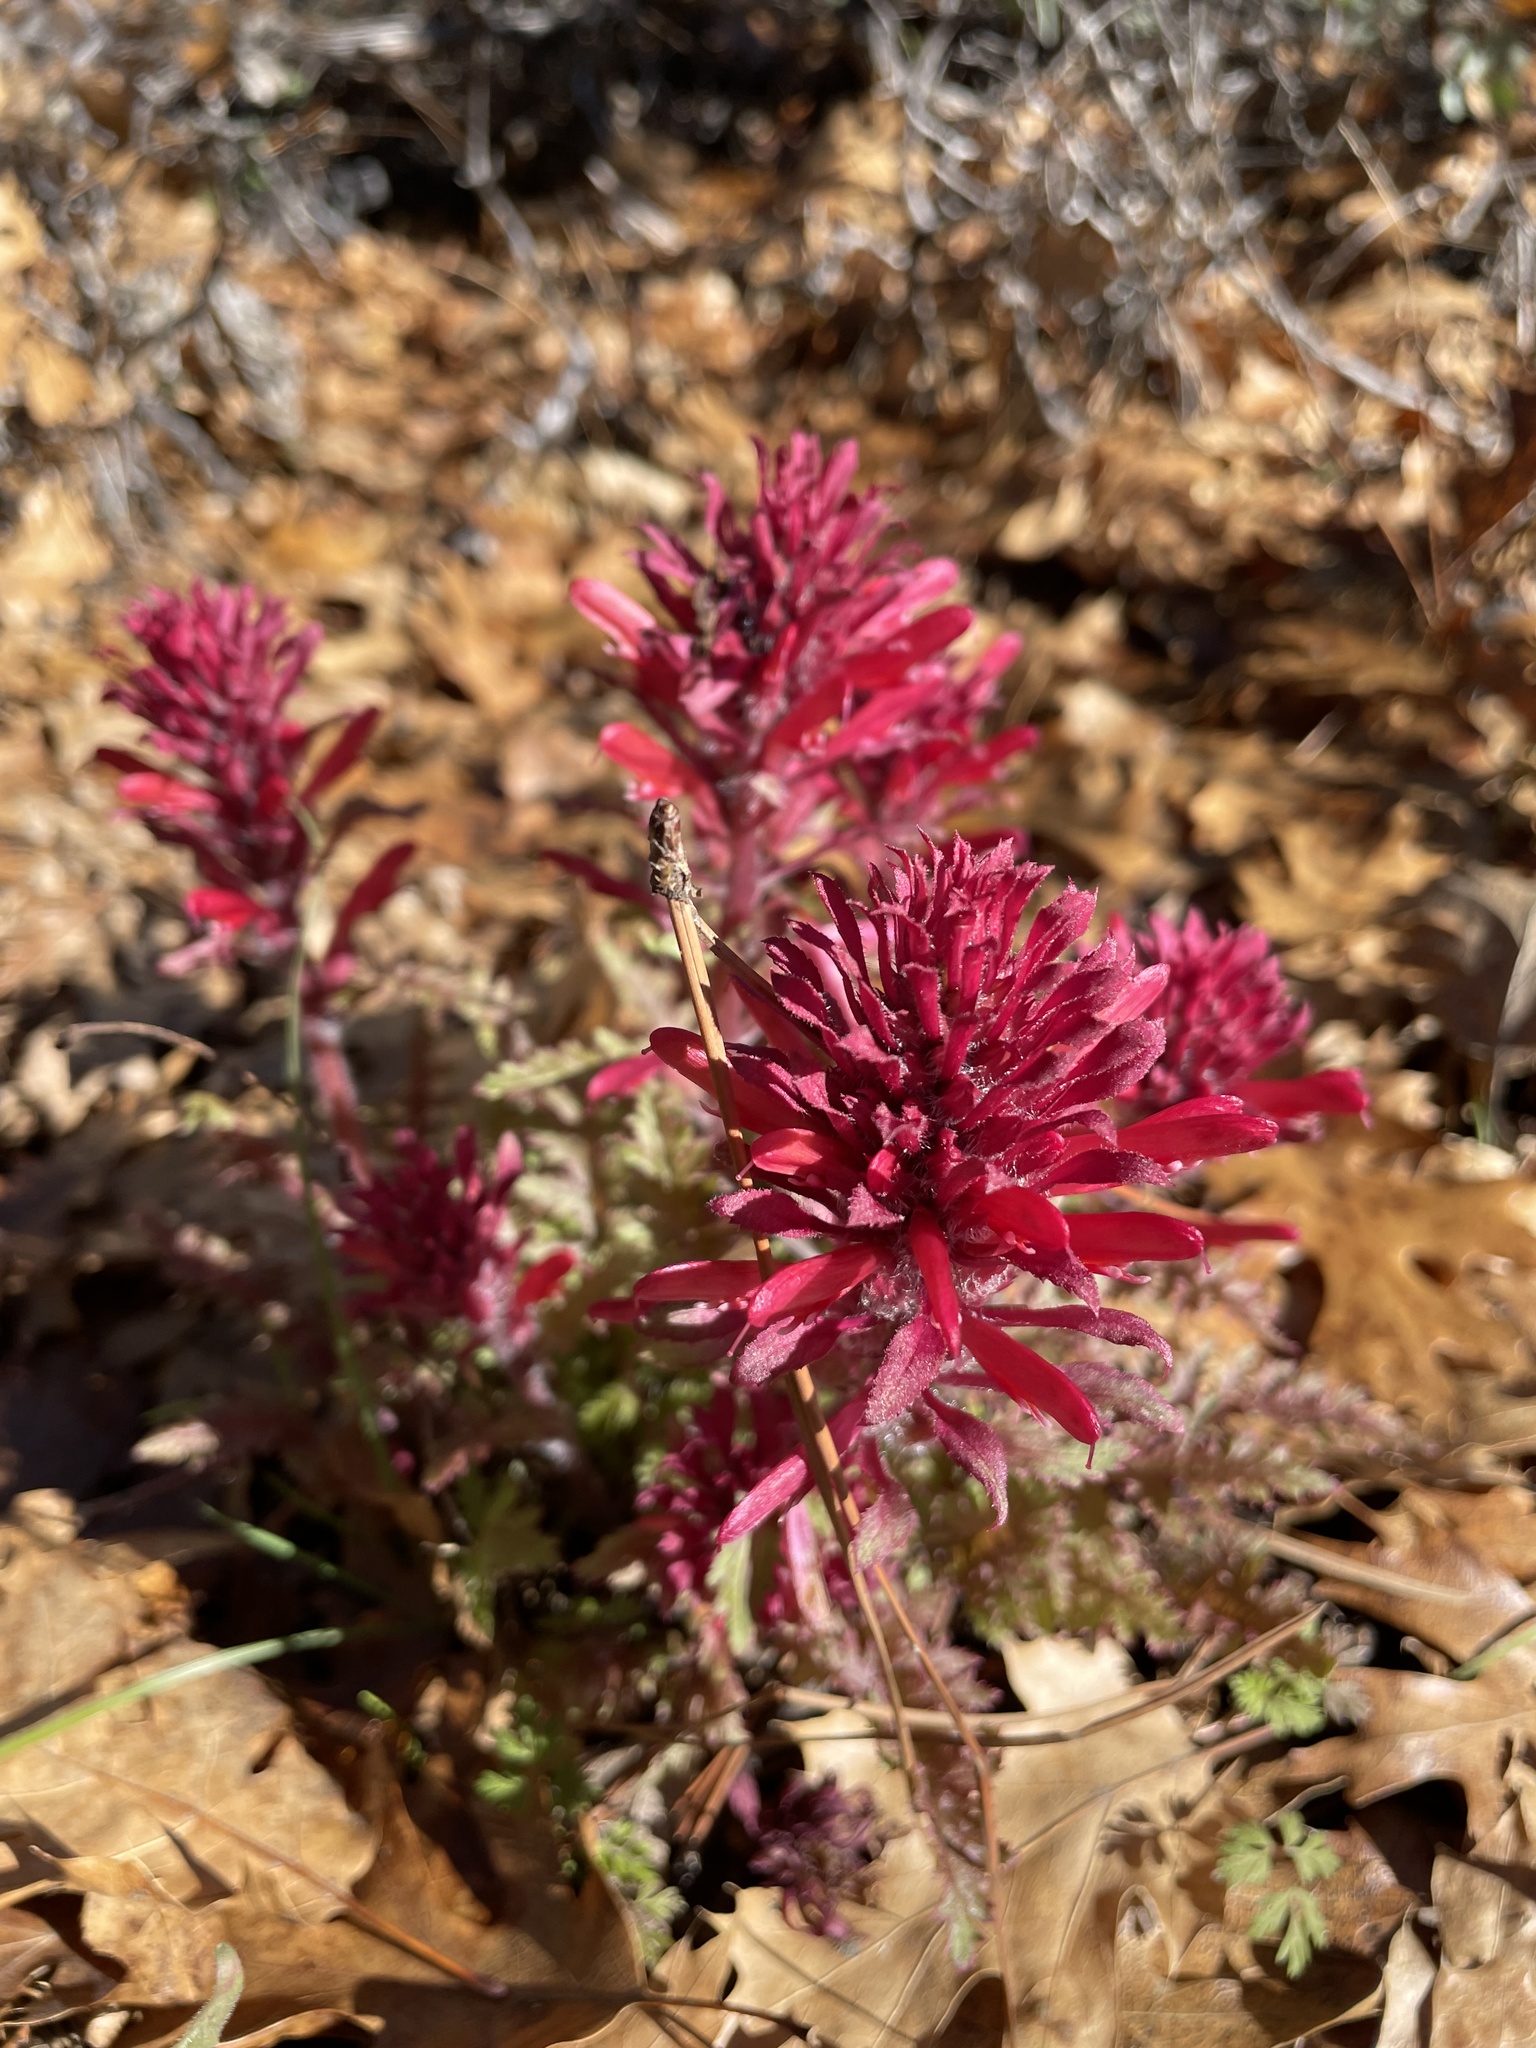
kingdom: Plantae
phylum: Tracheophyta
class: Magnoliopsida
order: Lamiales
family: Orobanchaceae
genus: Pedicularis
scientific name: Pedicularis densiflora
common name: Indian warrior
